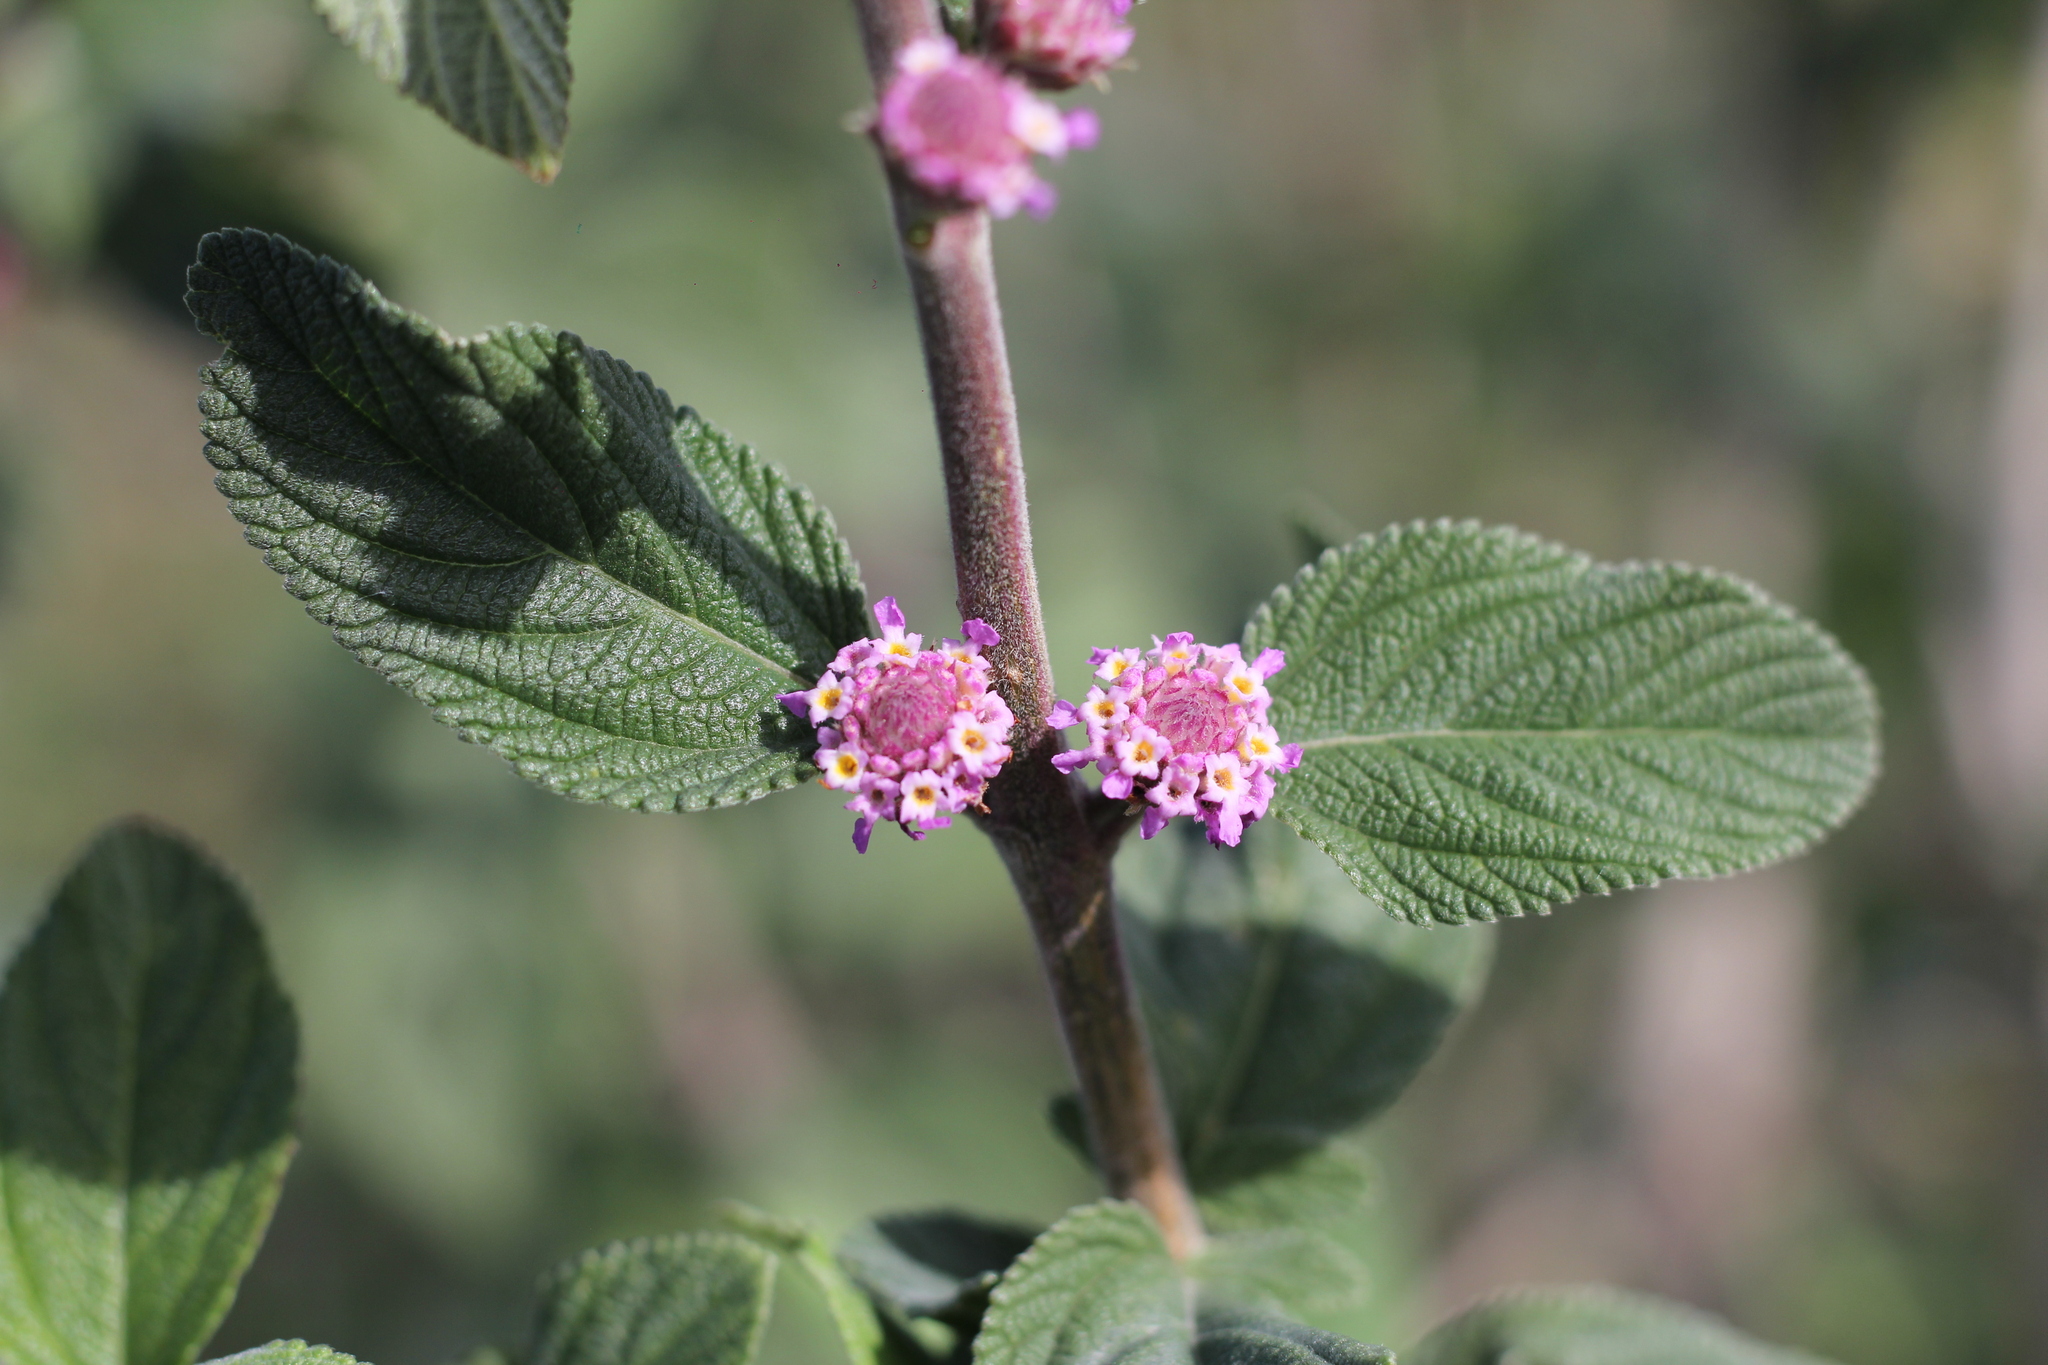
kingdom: Plantae
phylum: Tracheophyta
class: Magnoliopsida
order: Lamiales
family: Verbenaceae
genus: Lippia
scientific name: Lippia alba
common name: Bushy matgrass
